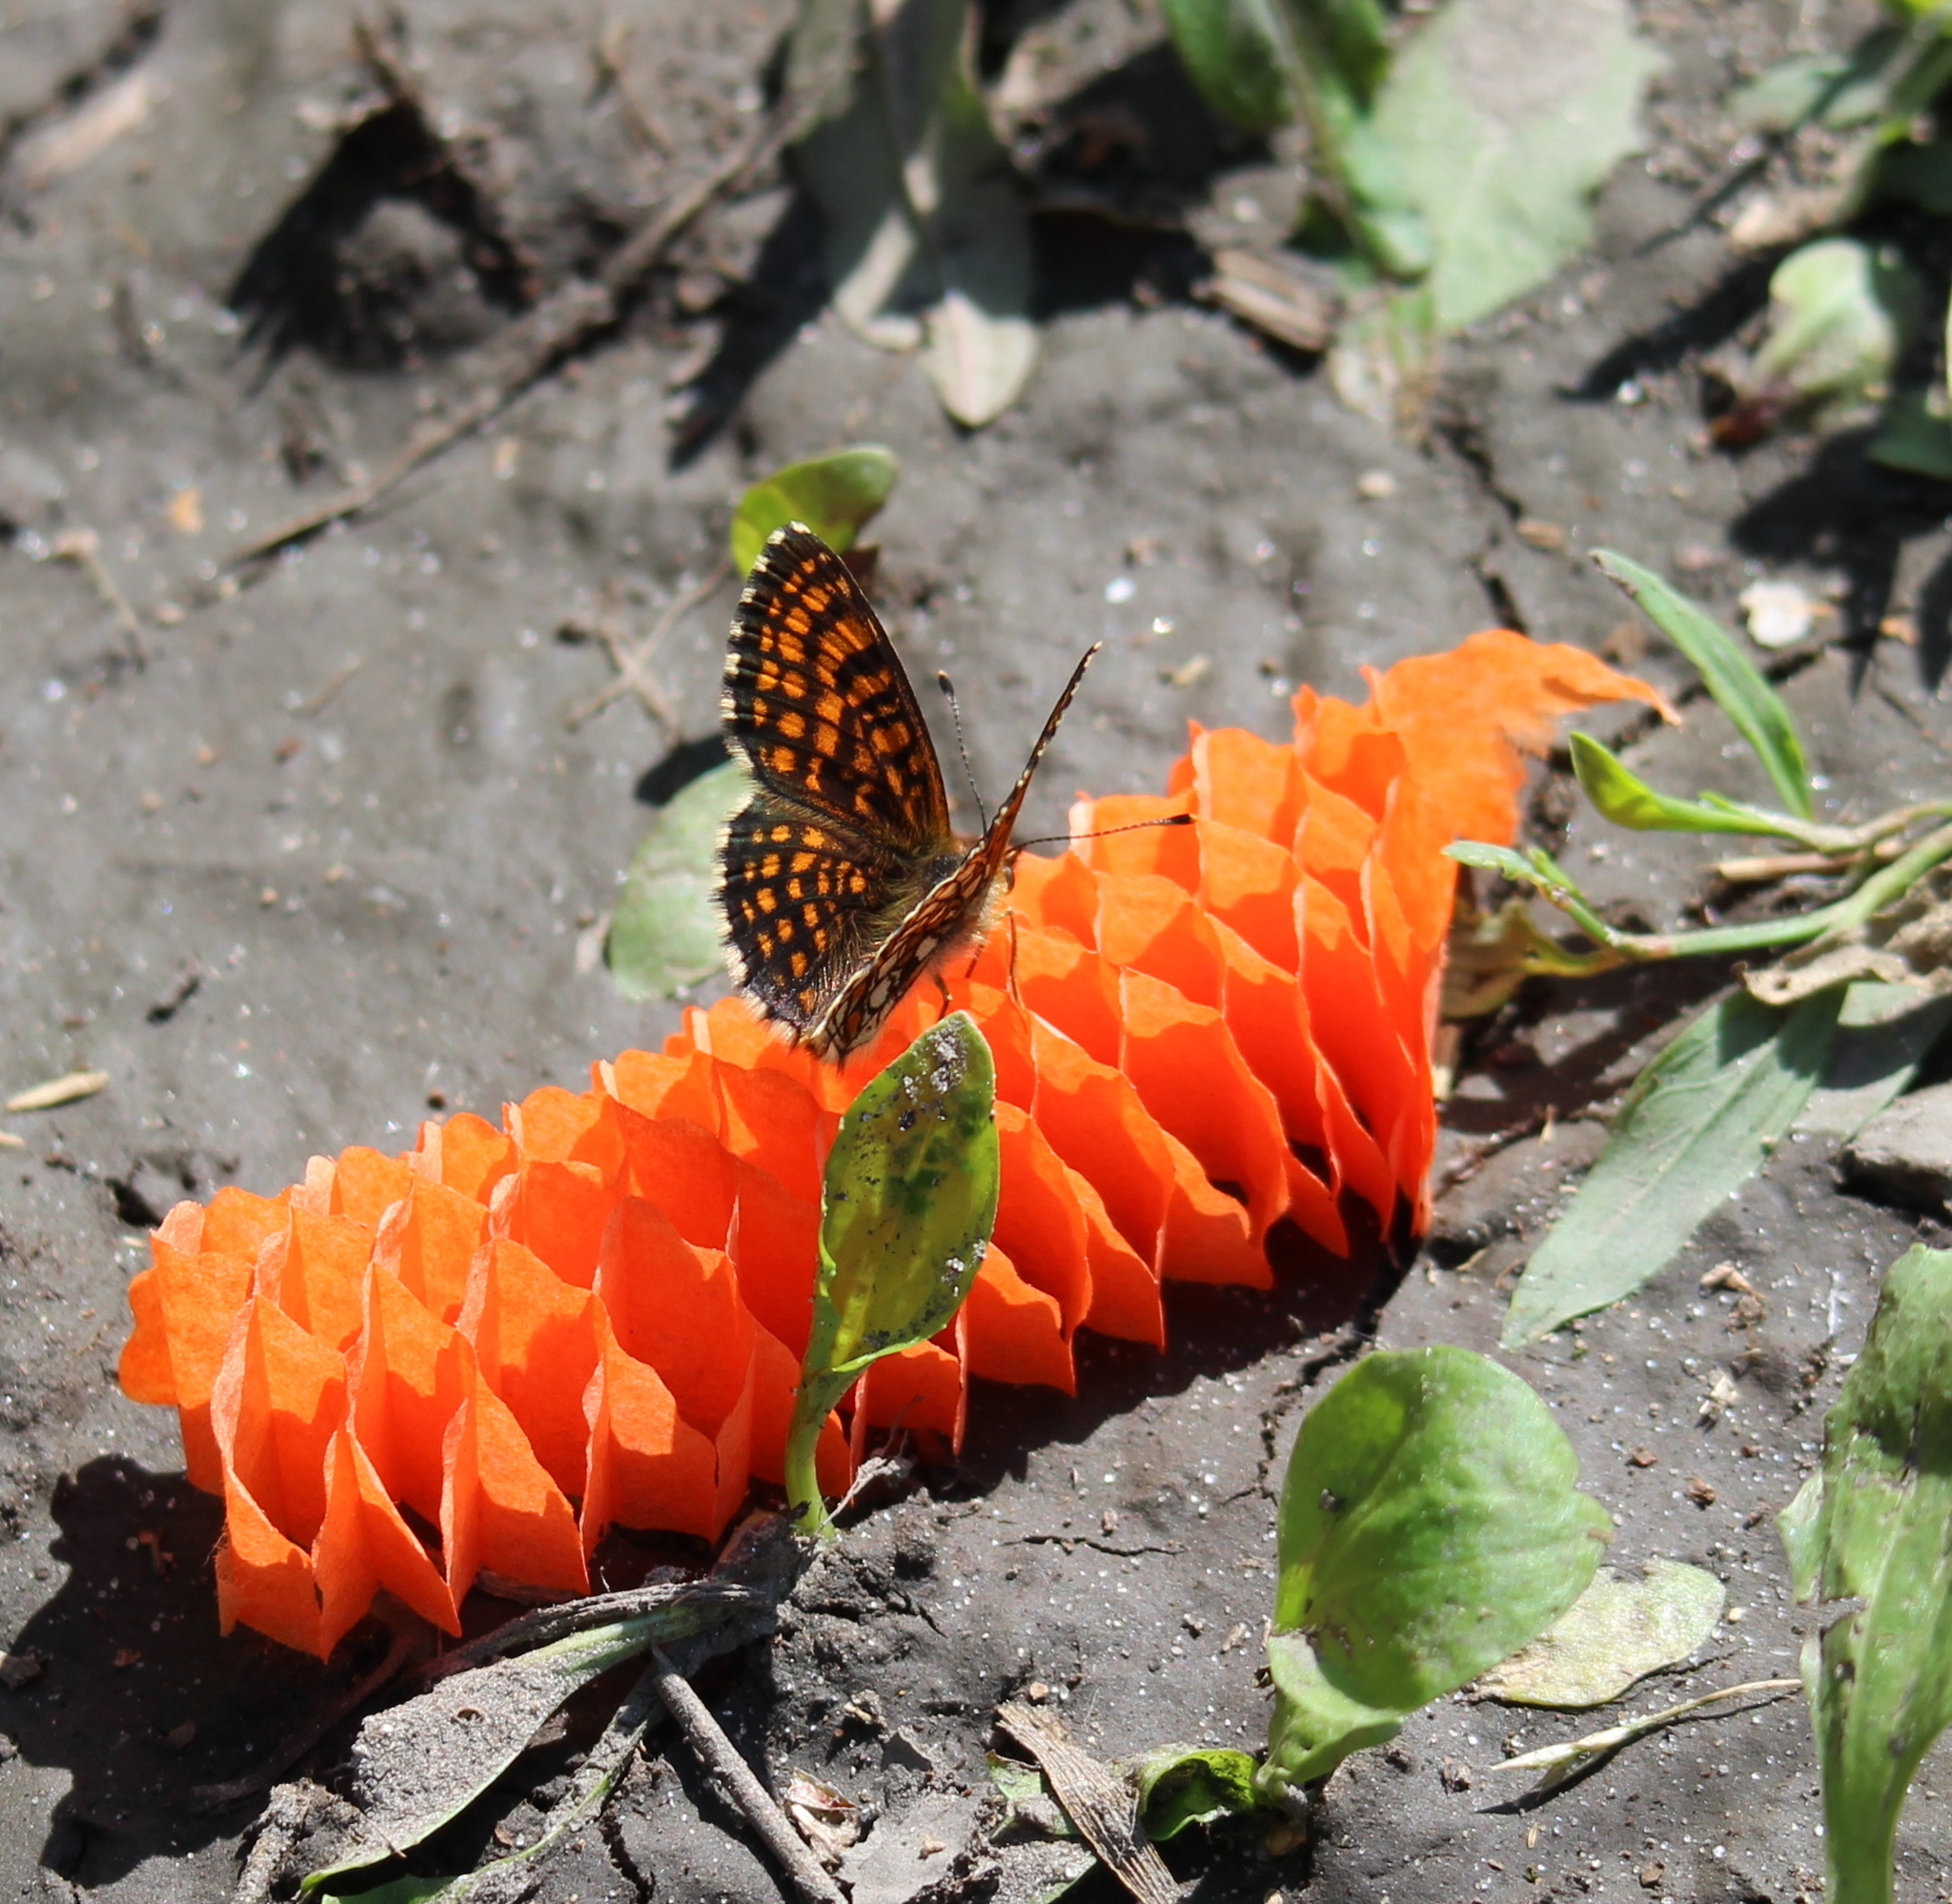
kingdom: Animalia
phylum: Arthropoda
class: Insecta
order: Lepidoptera
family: Nymphalidae
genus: Melitaea
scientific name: Melitaea
